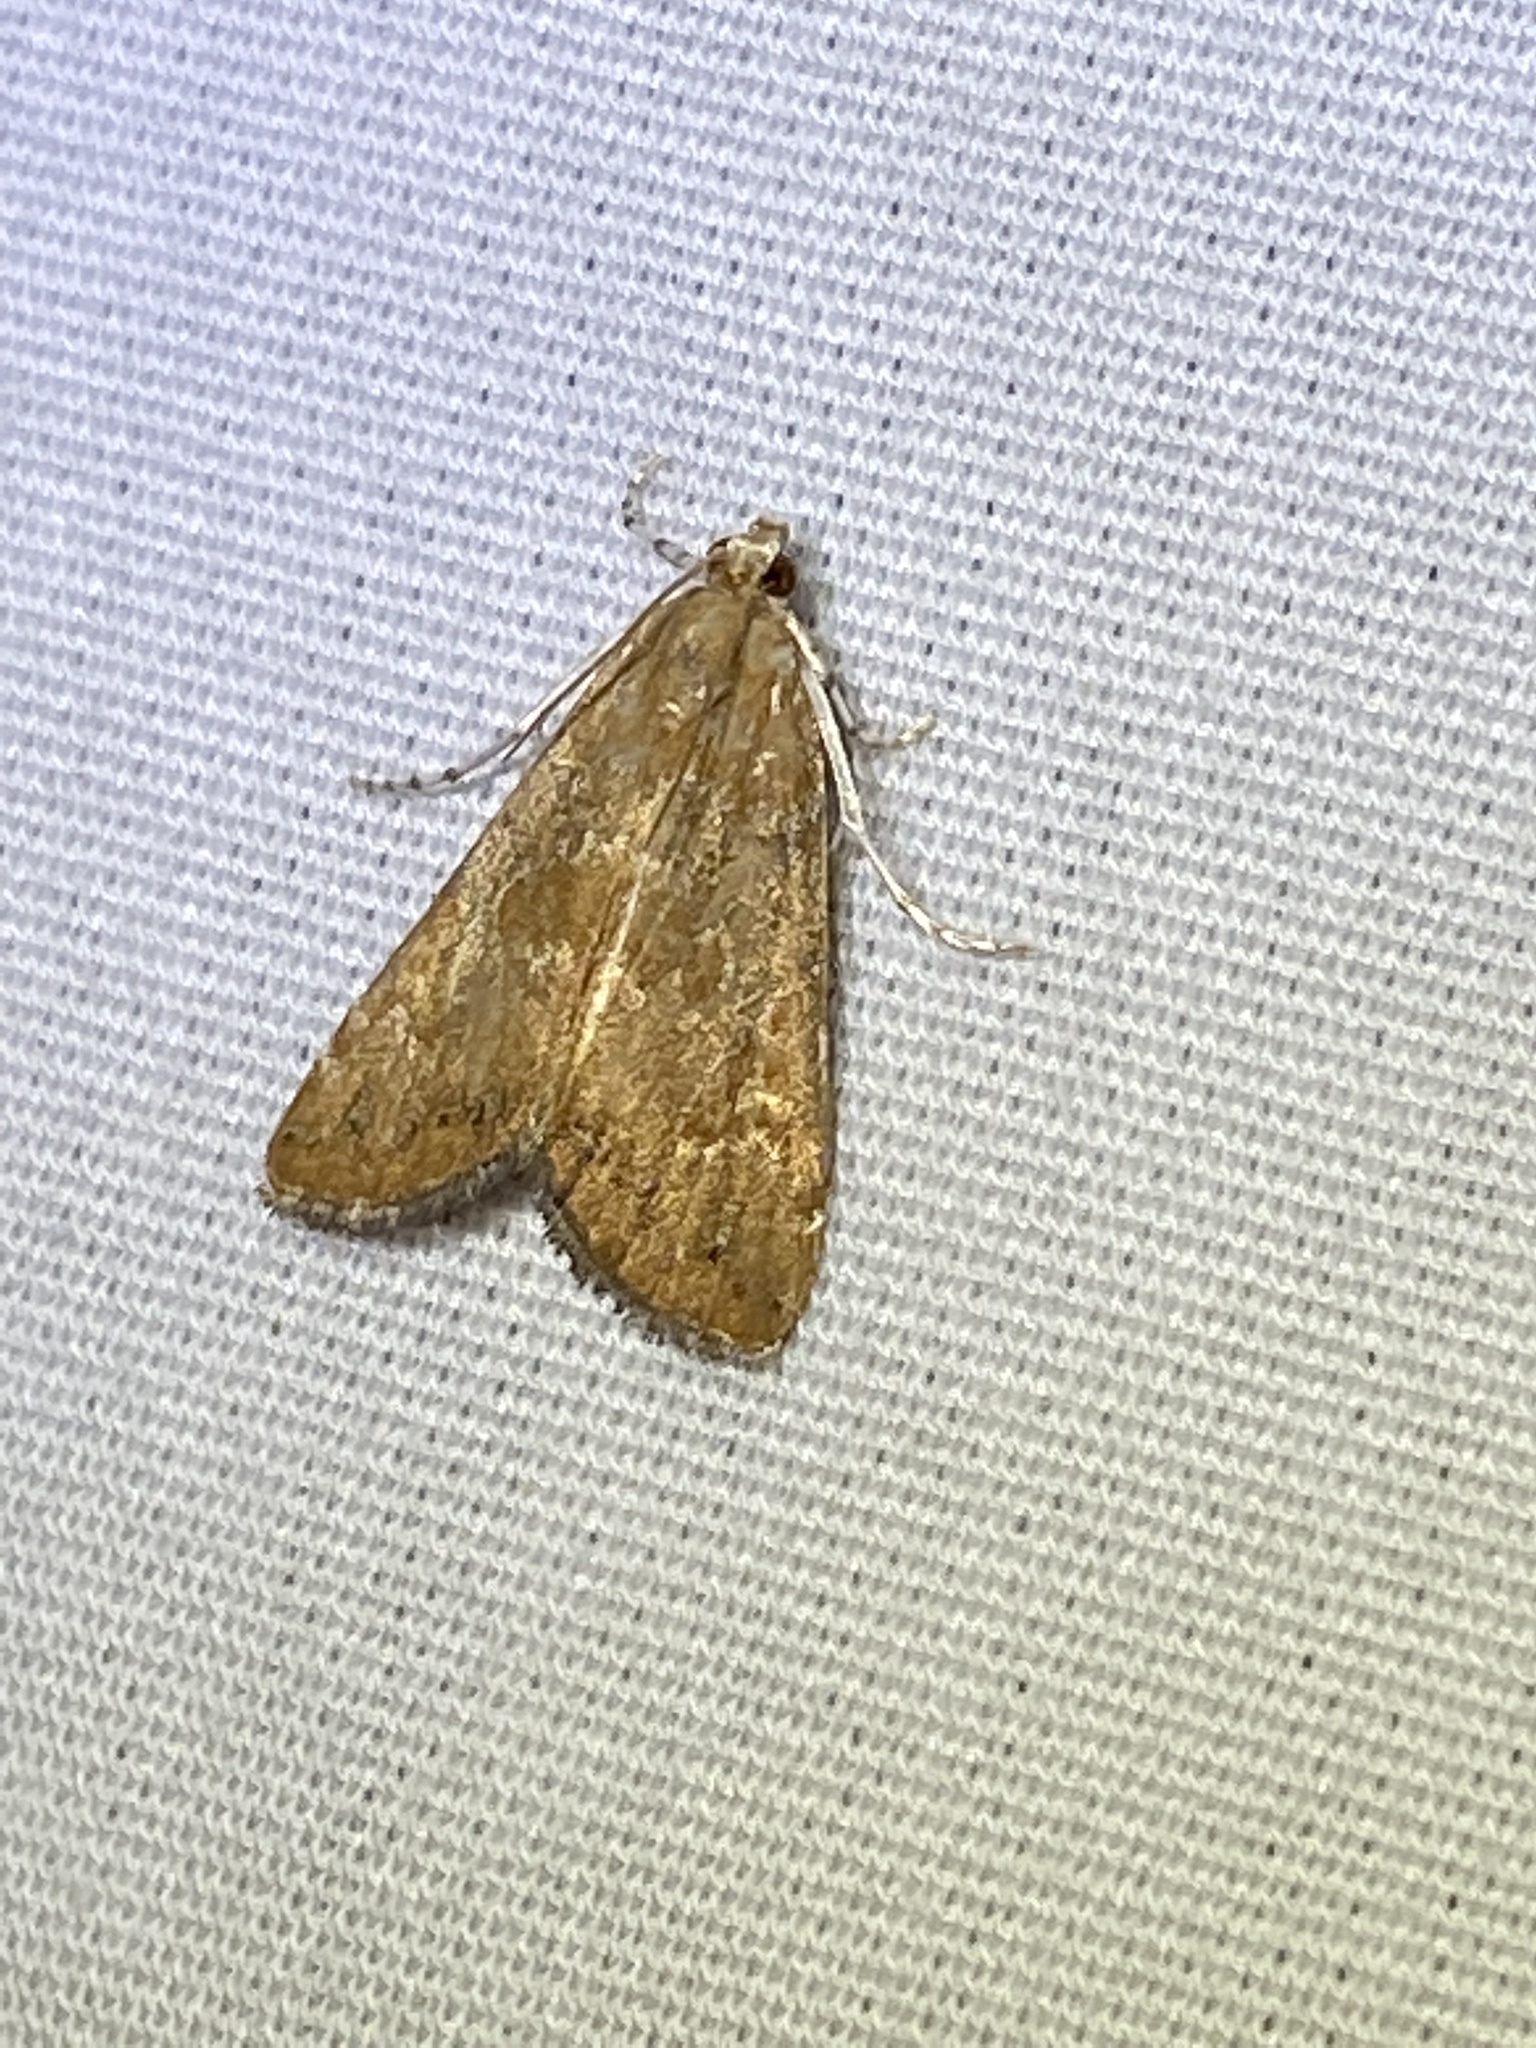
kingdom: Animalia
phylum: Arthropoda
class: Insecta
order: Lepidoptera
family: Crambidae
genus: Elophila
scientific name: Elophila gyralis
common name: Waterlily borer moth
